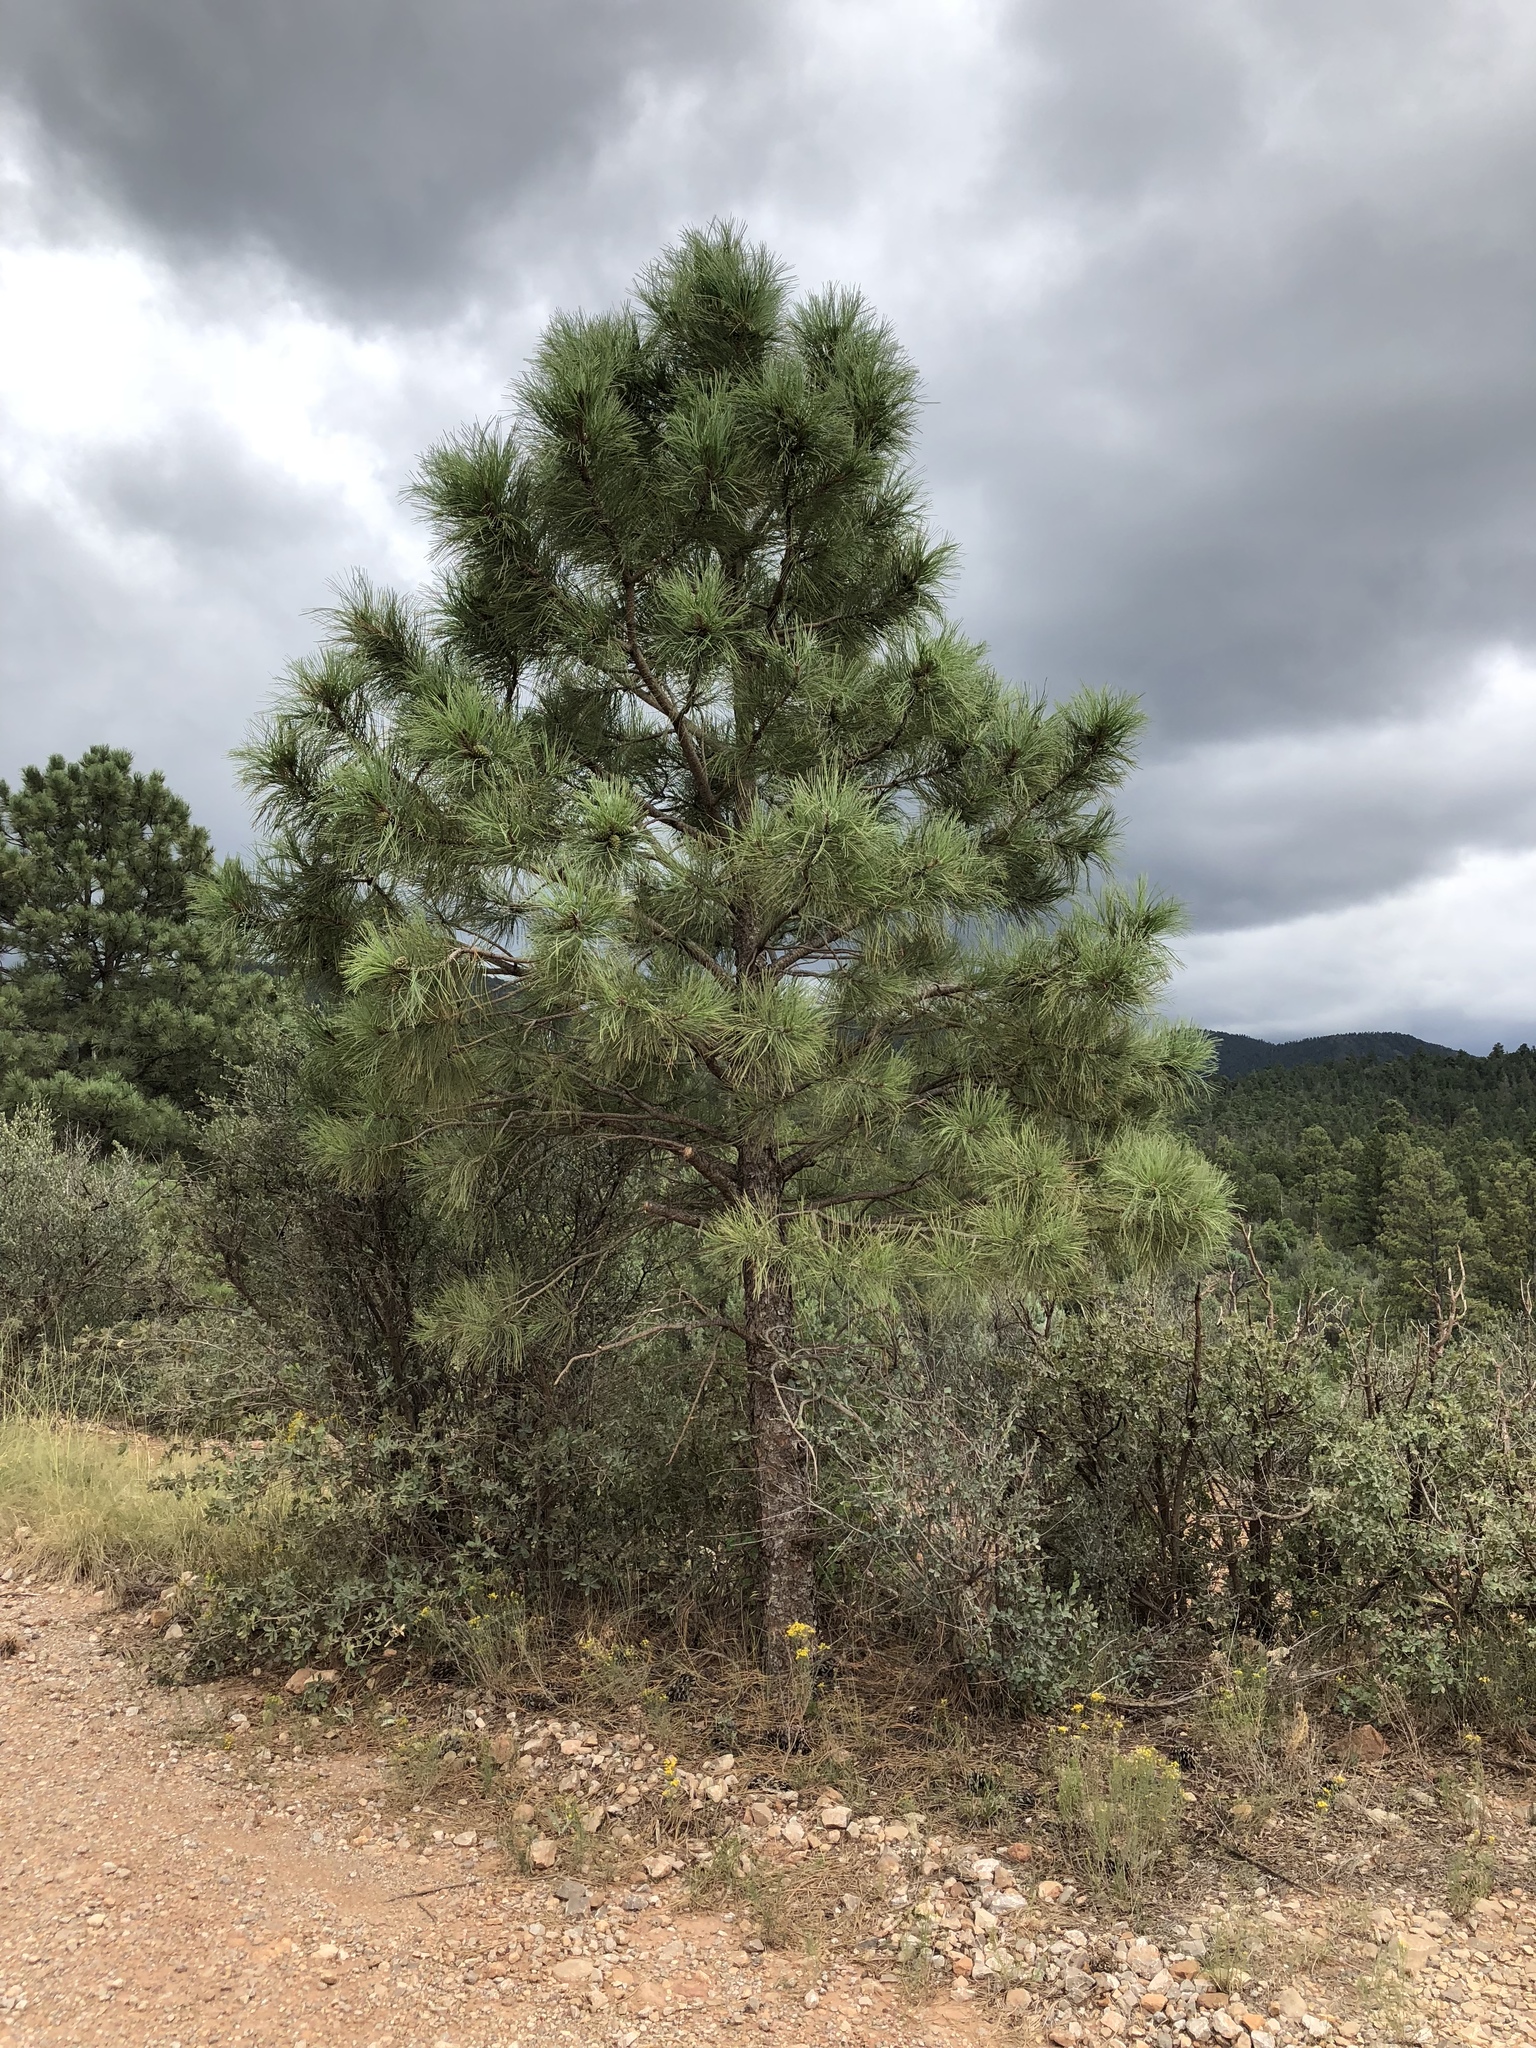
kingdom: Plantae
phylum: Tracheophyta
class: Pinopsida
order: Pinales
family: Pinaceae
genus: Pinus
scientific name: Pinus ponderosa
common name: Western yellow-pine
